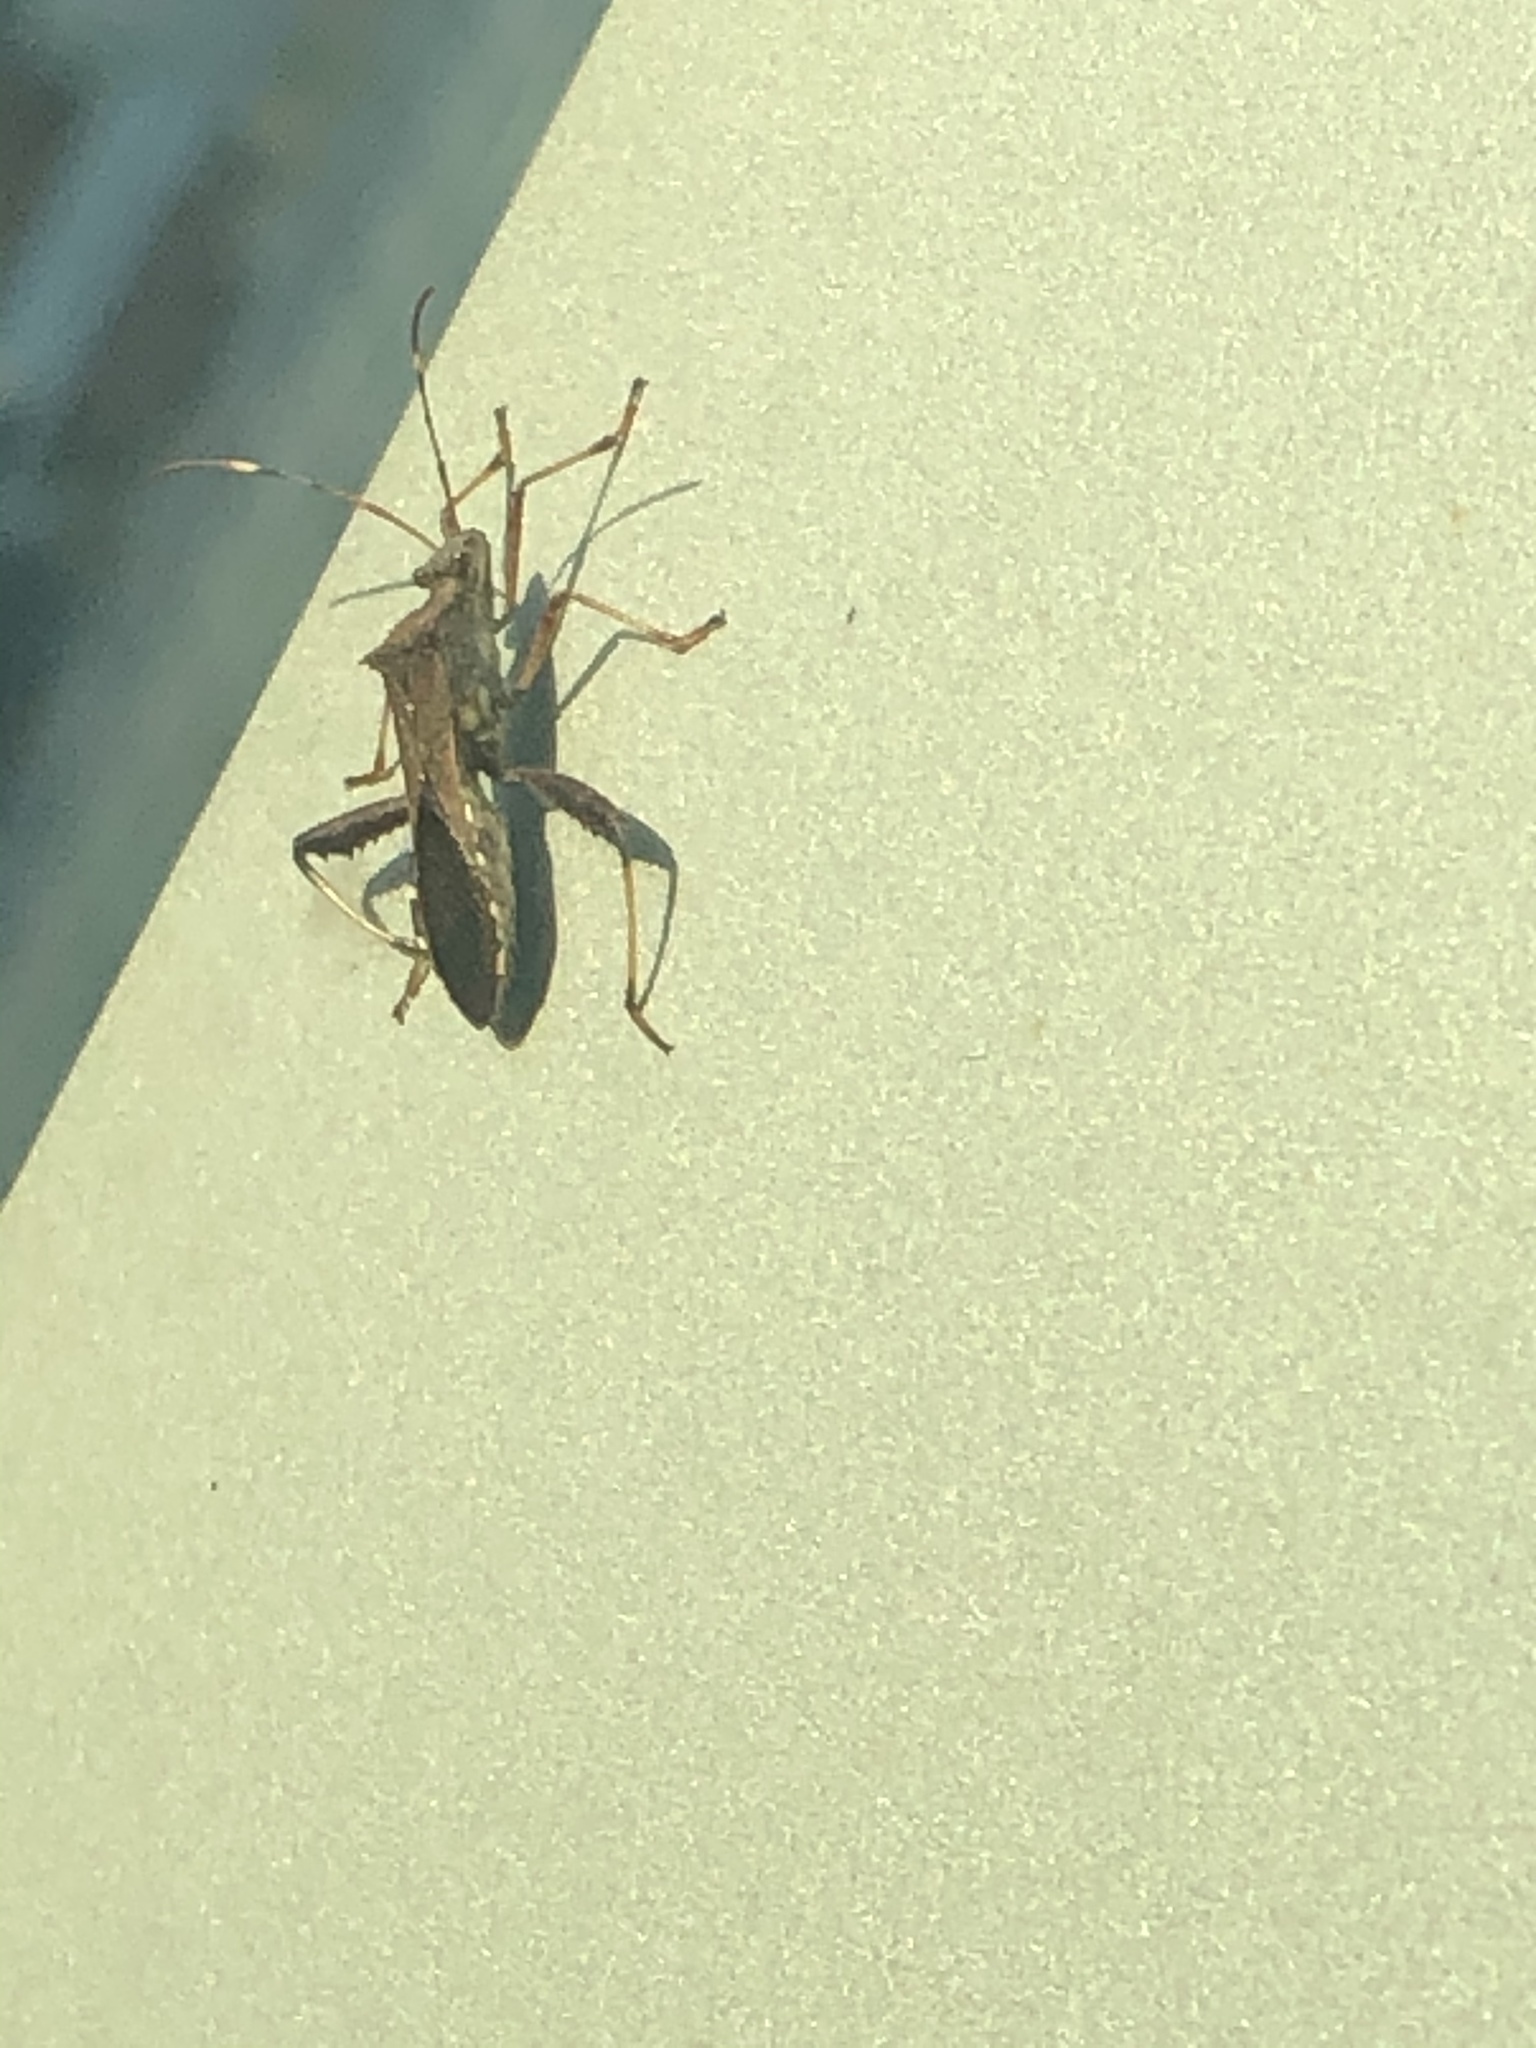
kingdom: Animalia
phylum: Arthropoda
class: Insecta
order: Hemiptera
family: Alydidae
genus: Riptortus
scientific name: Riptortus pedestris
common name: Bean bug
